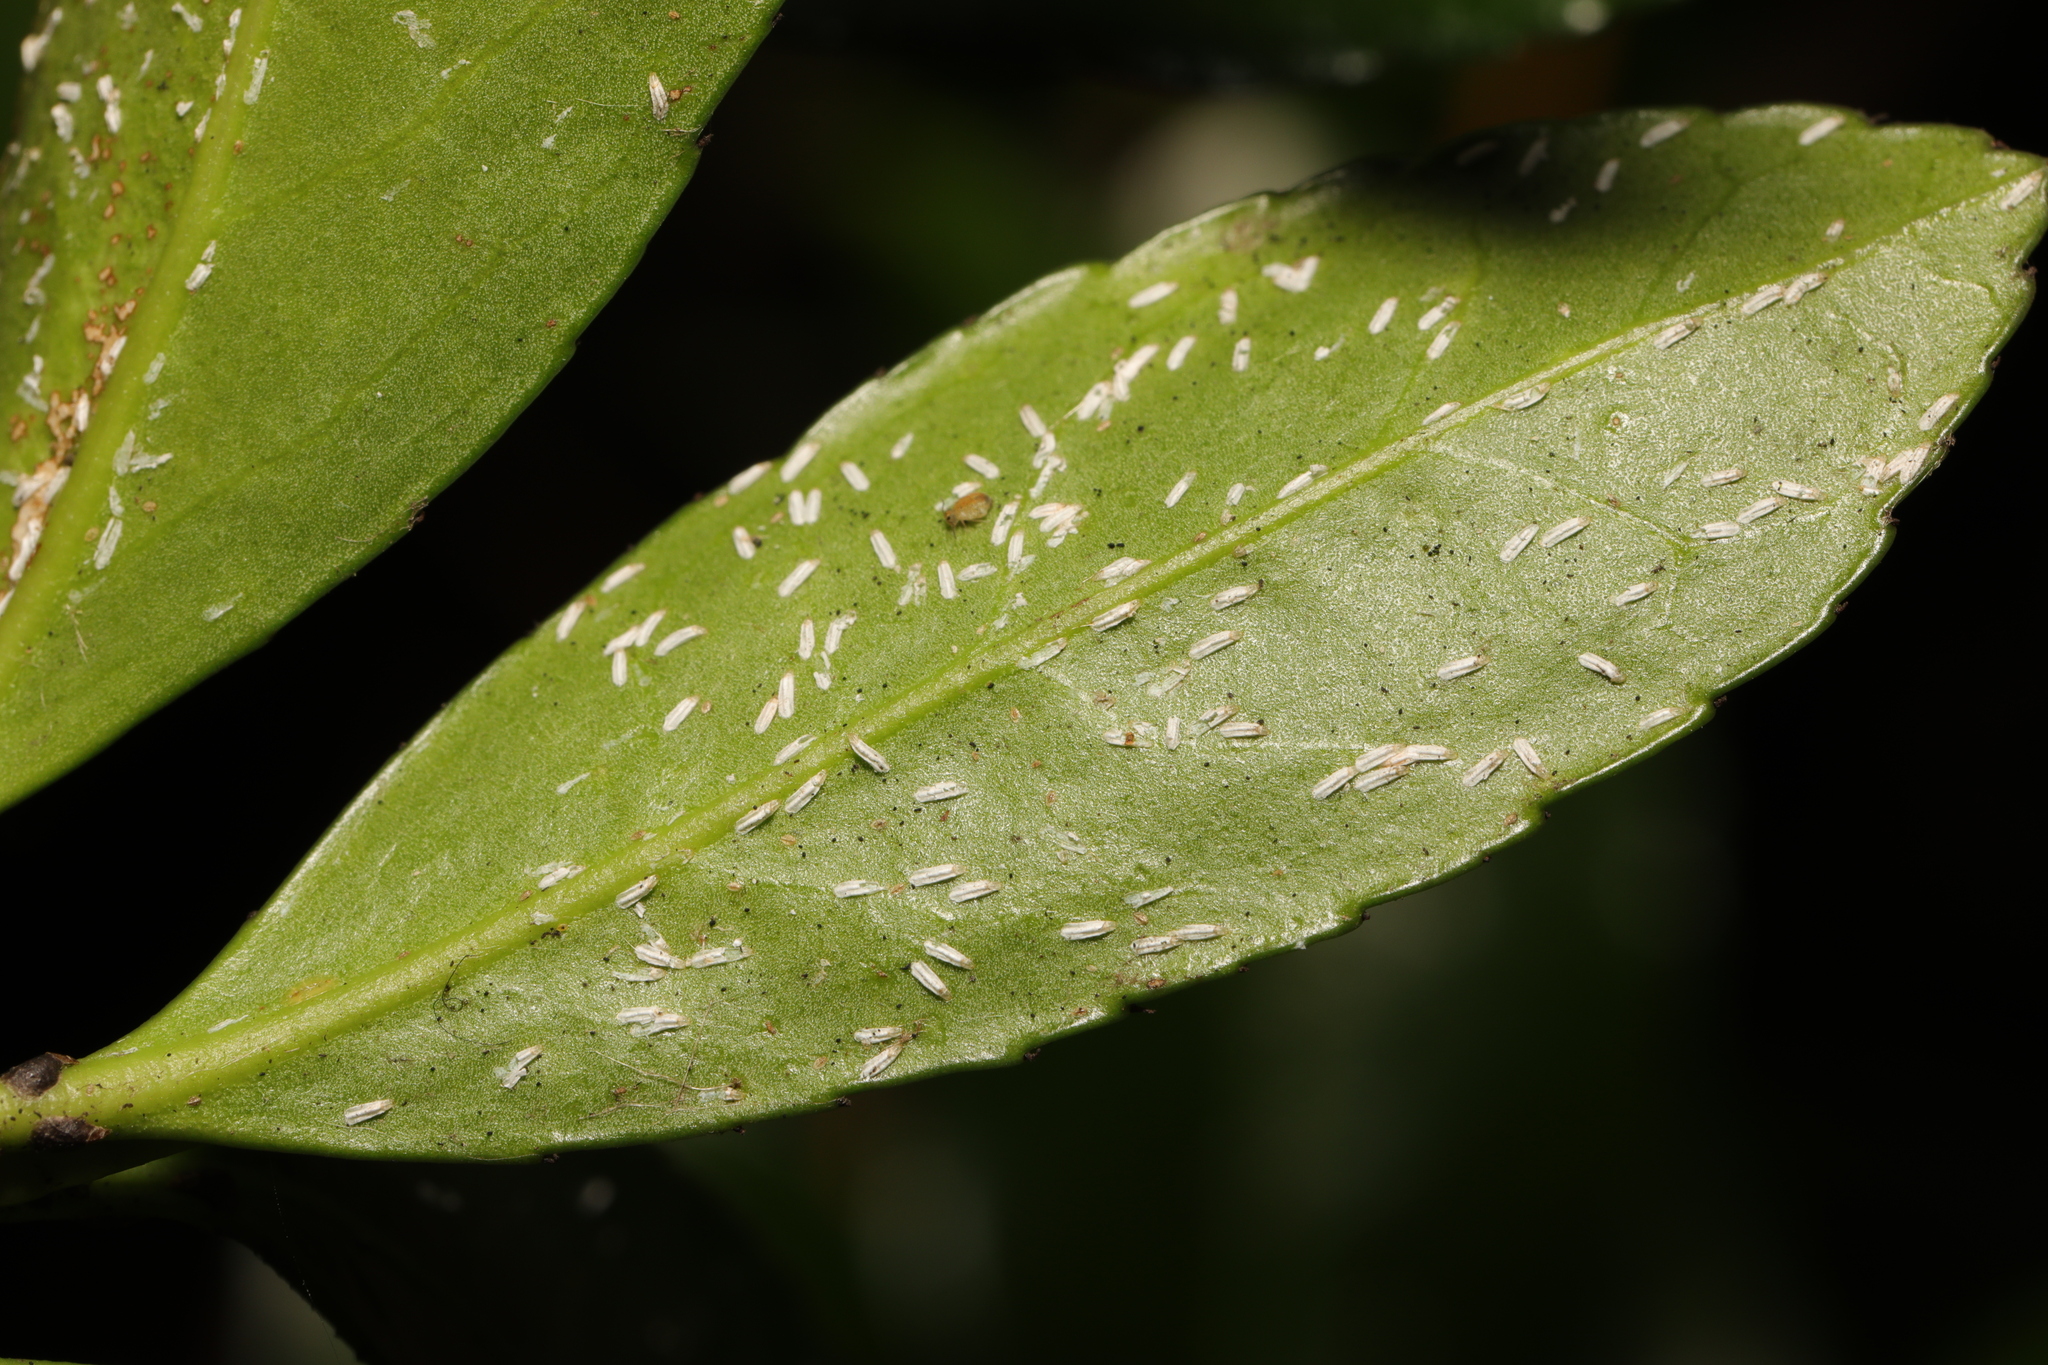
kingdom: Animalia
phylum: Arthropoda
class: Insecta
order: Hemiptera
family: Diaspididae
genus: Unaspis
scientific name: Unaspis euonymi
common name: Euonymus scale
